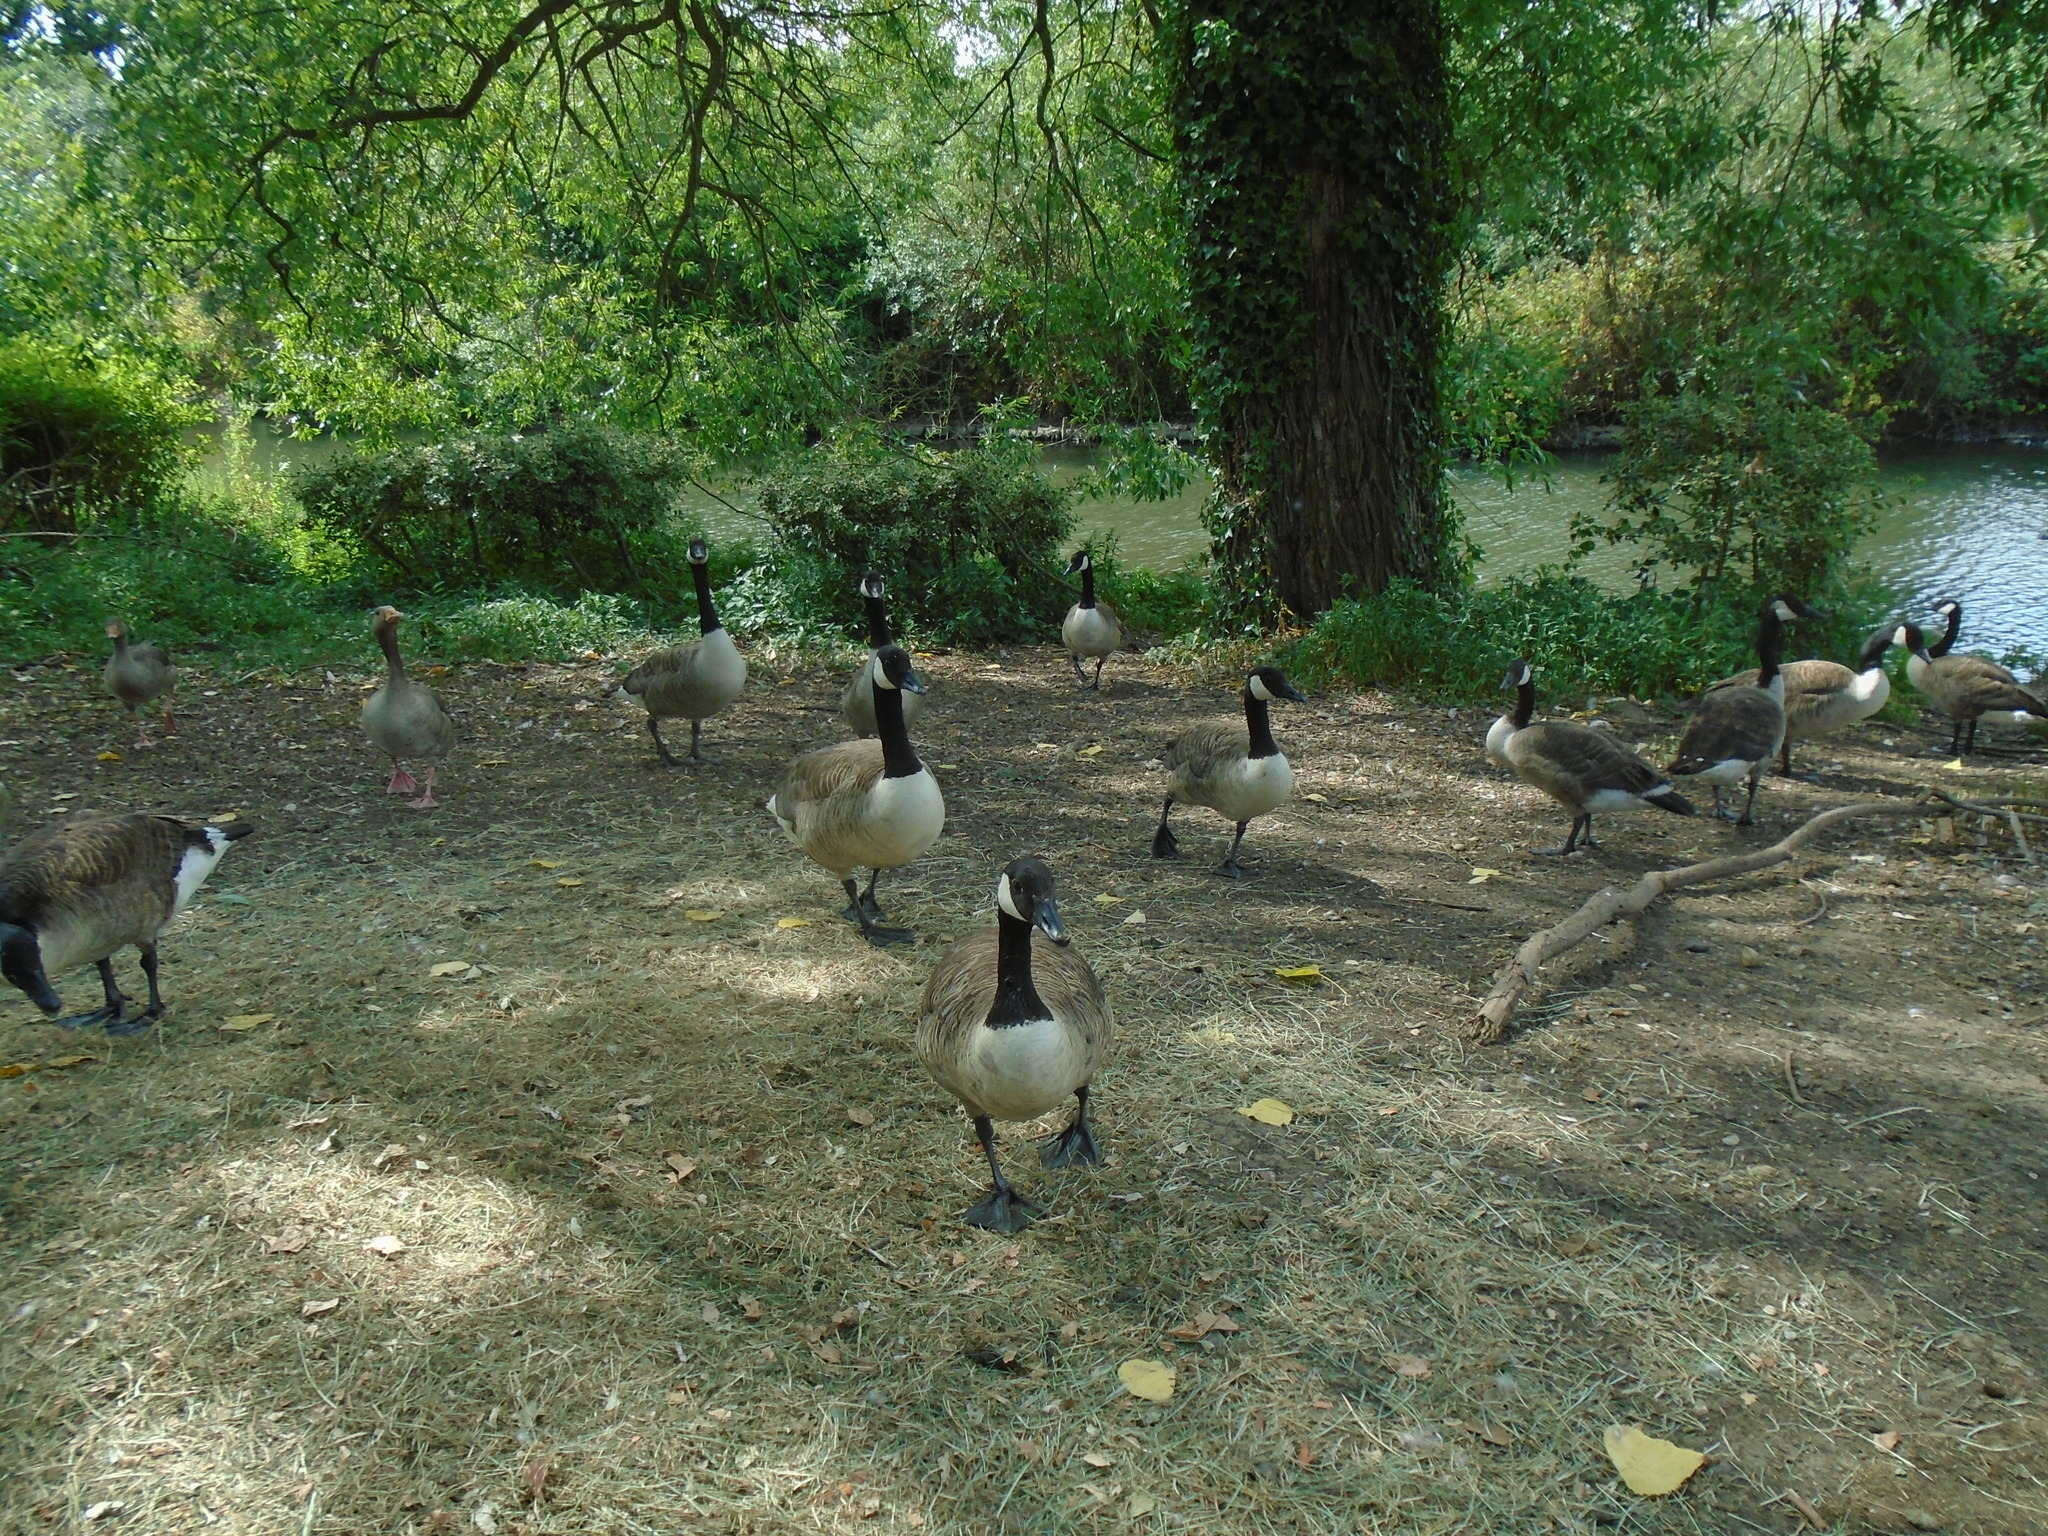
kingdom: Animalia
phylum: Chordata
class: Aves
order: Anseriformes
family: Anatidae
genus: Branta
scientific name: Branta canadensis
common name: Canada goose
